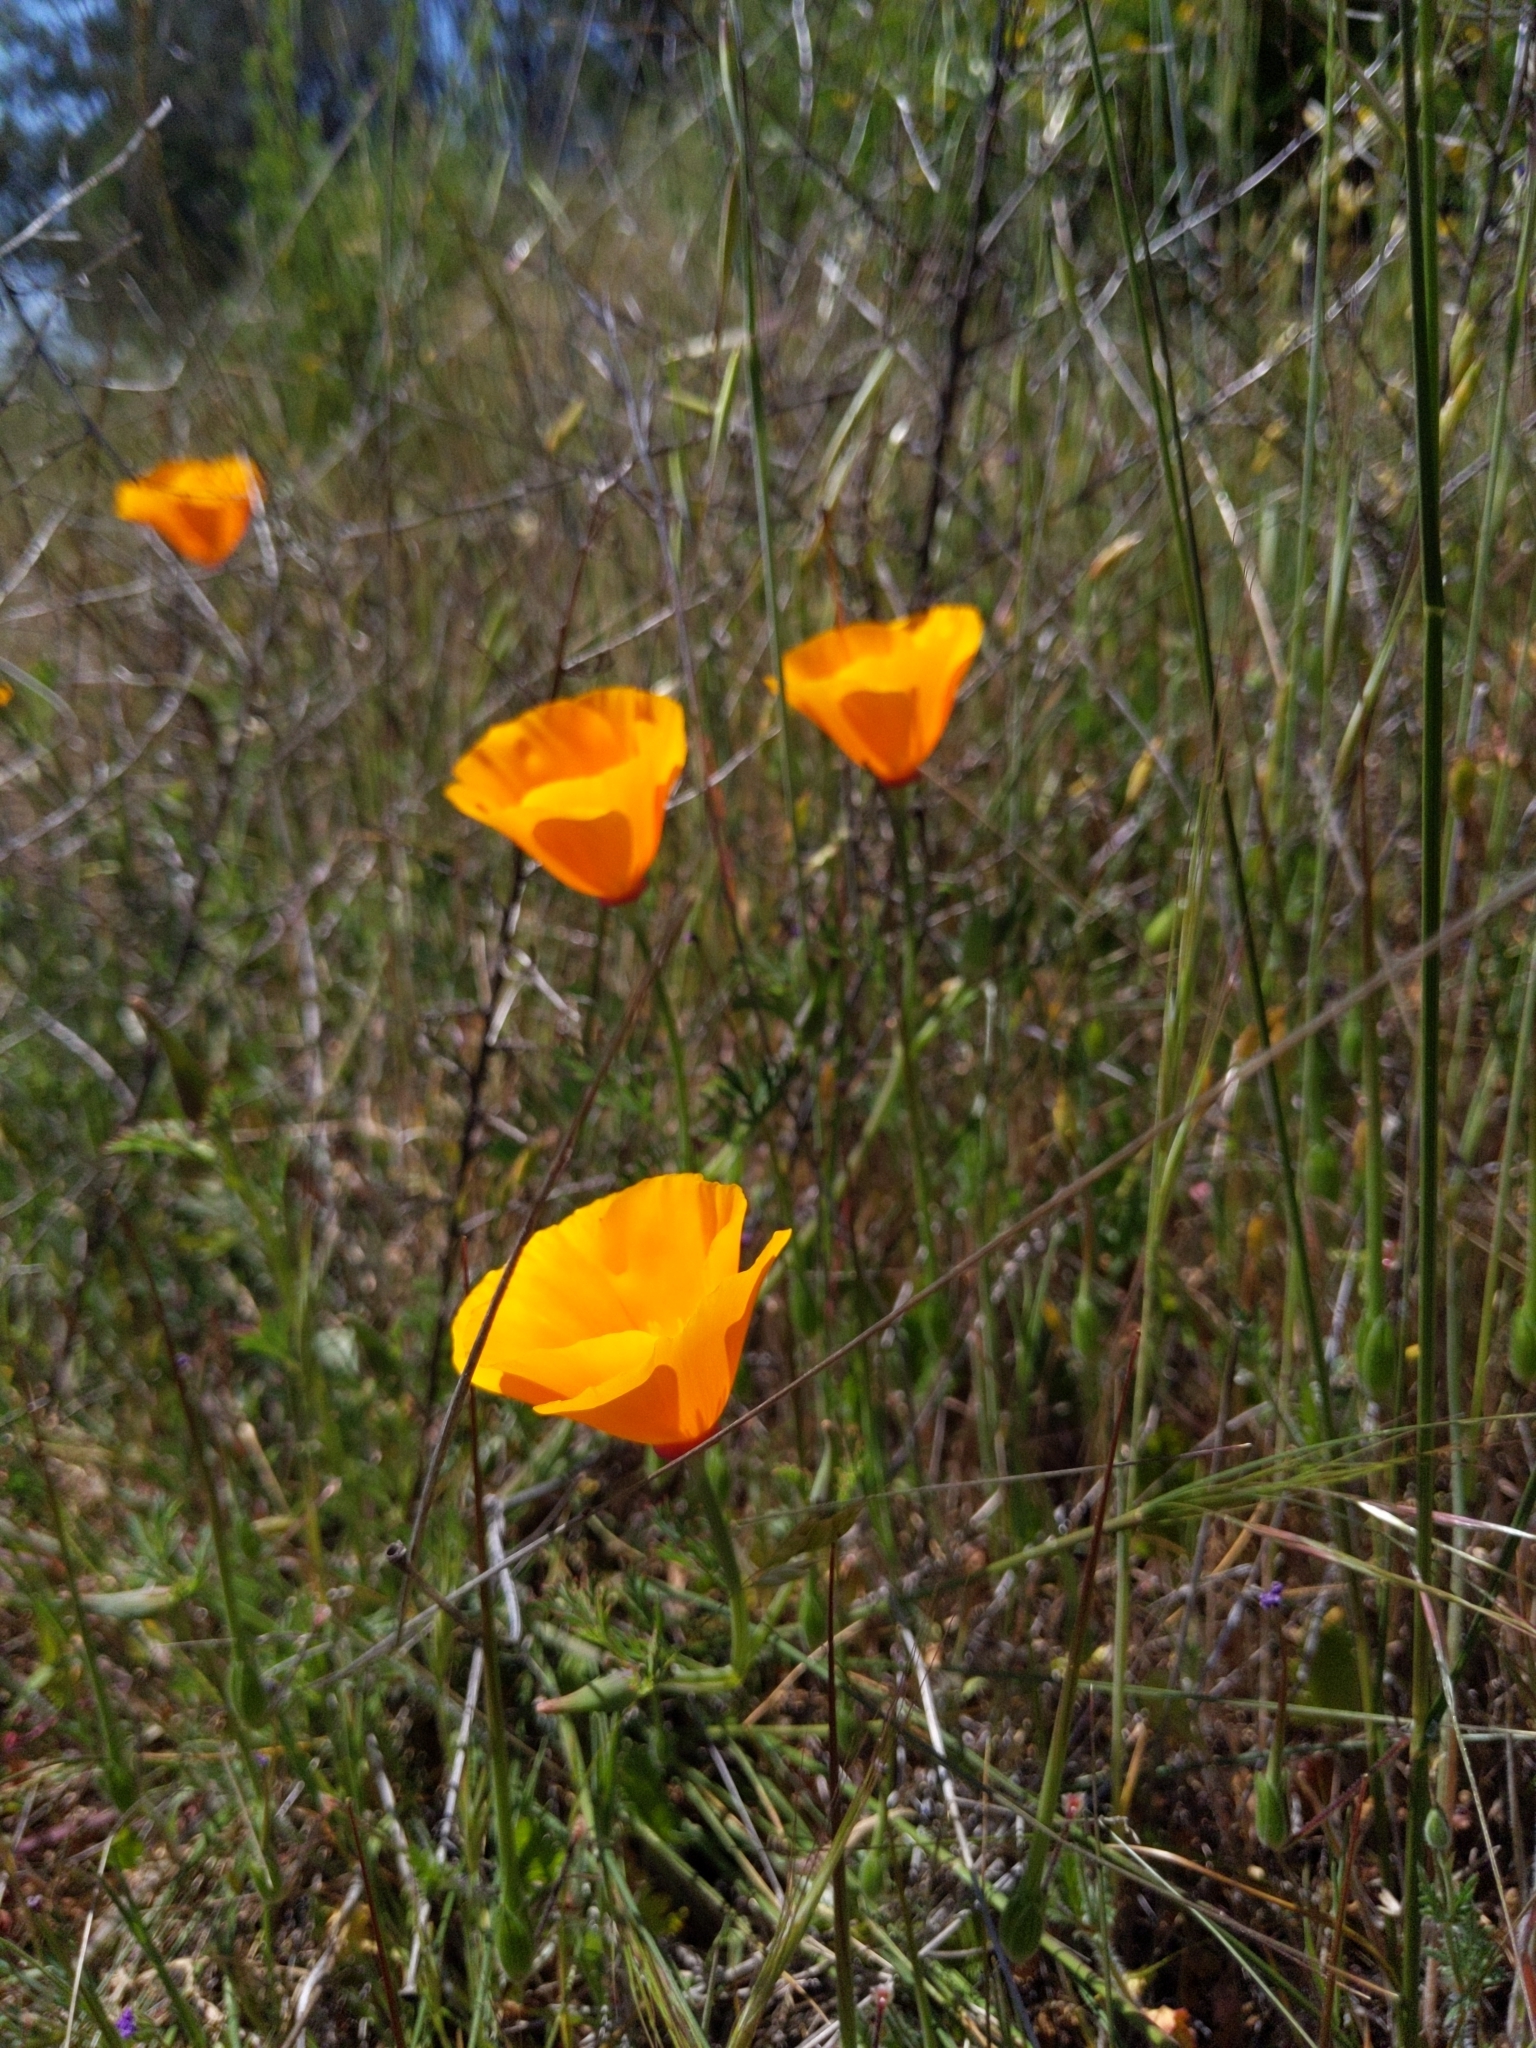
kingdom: Plantae
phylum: Tracheophyta
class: Magnoliopsida
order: Ranunculales
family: Papaveraceae
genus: Eschscholzia
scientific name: Eschscholzia californica
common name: California poppy
